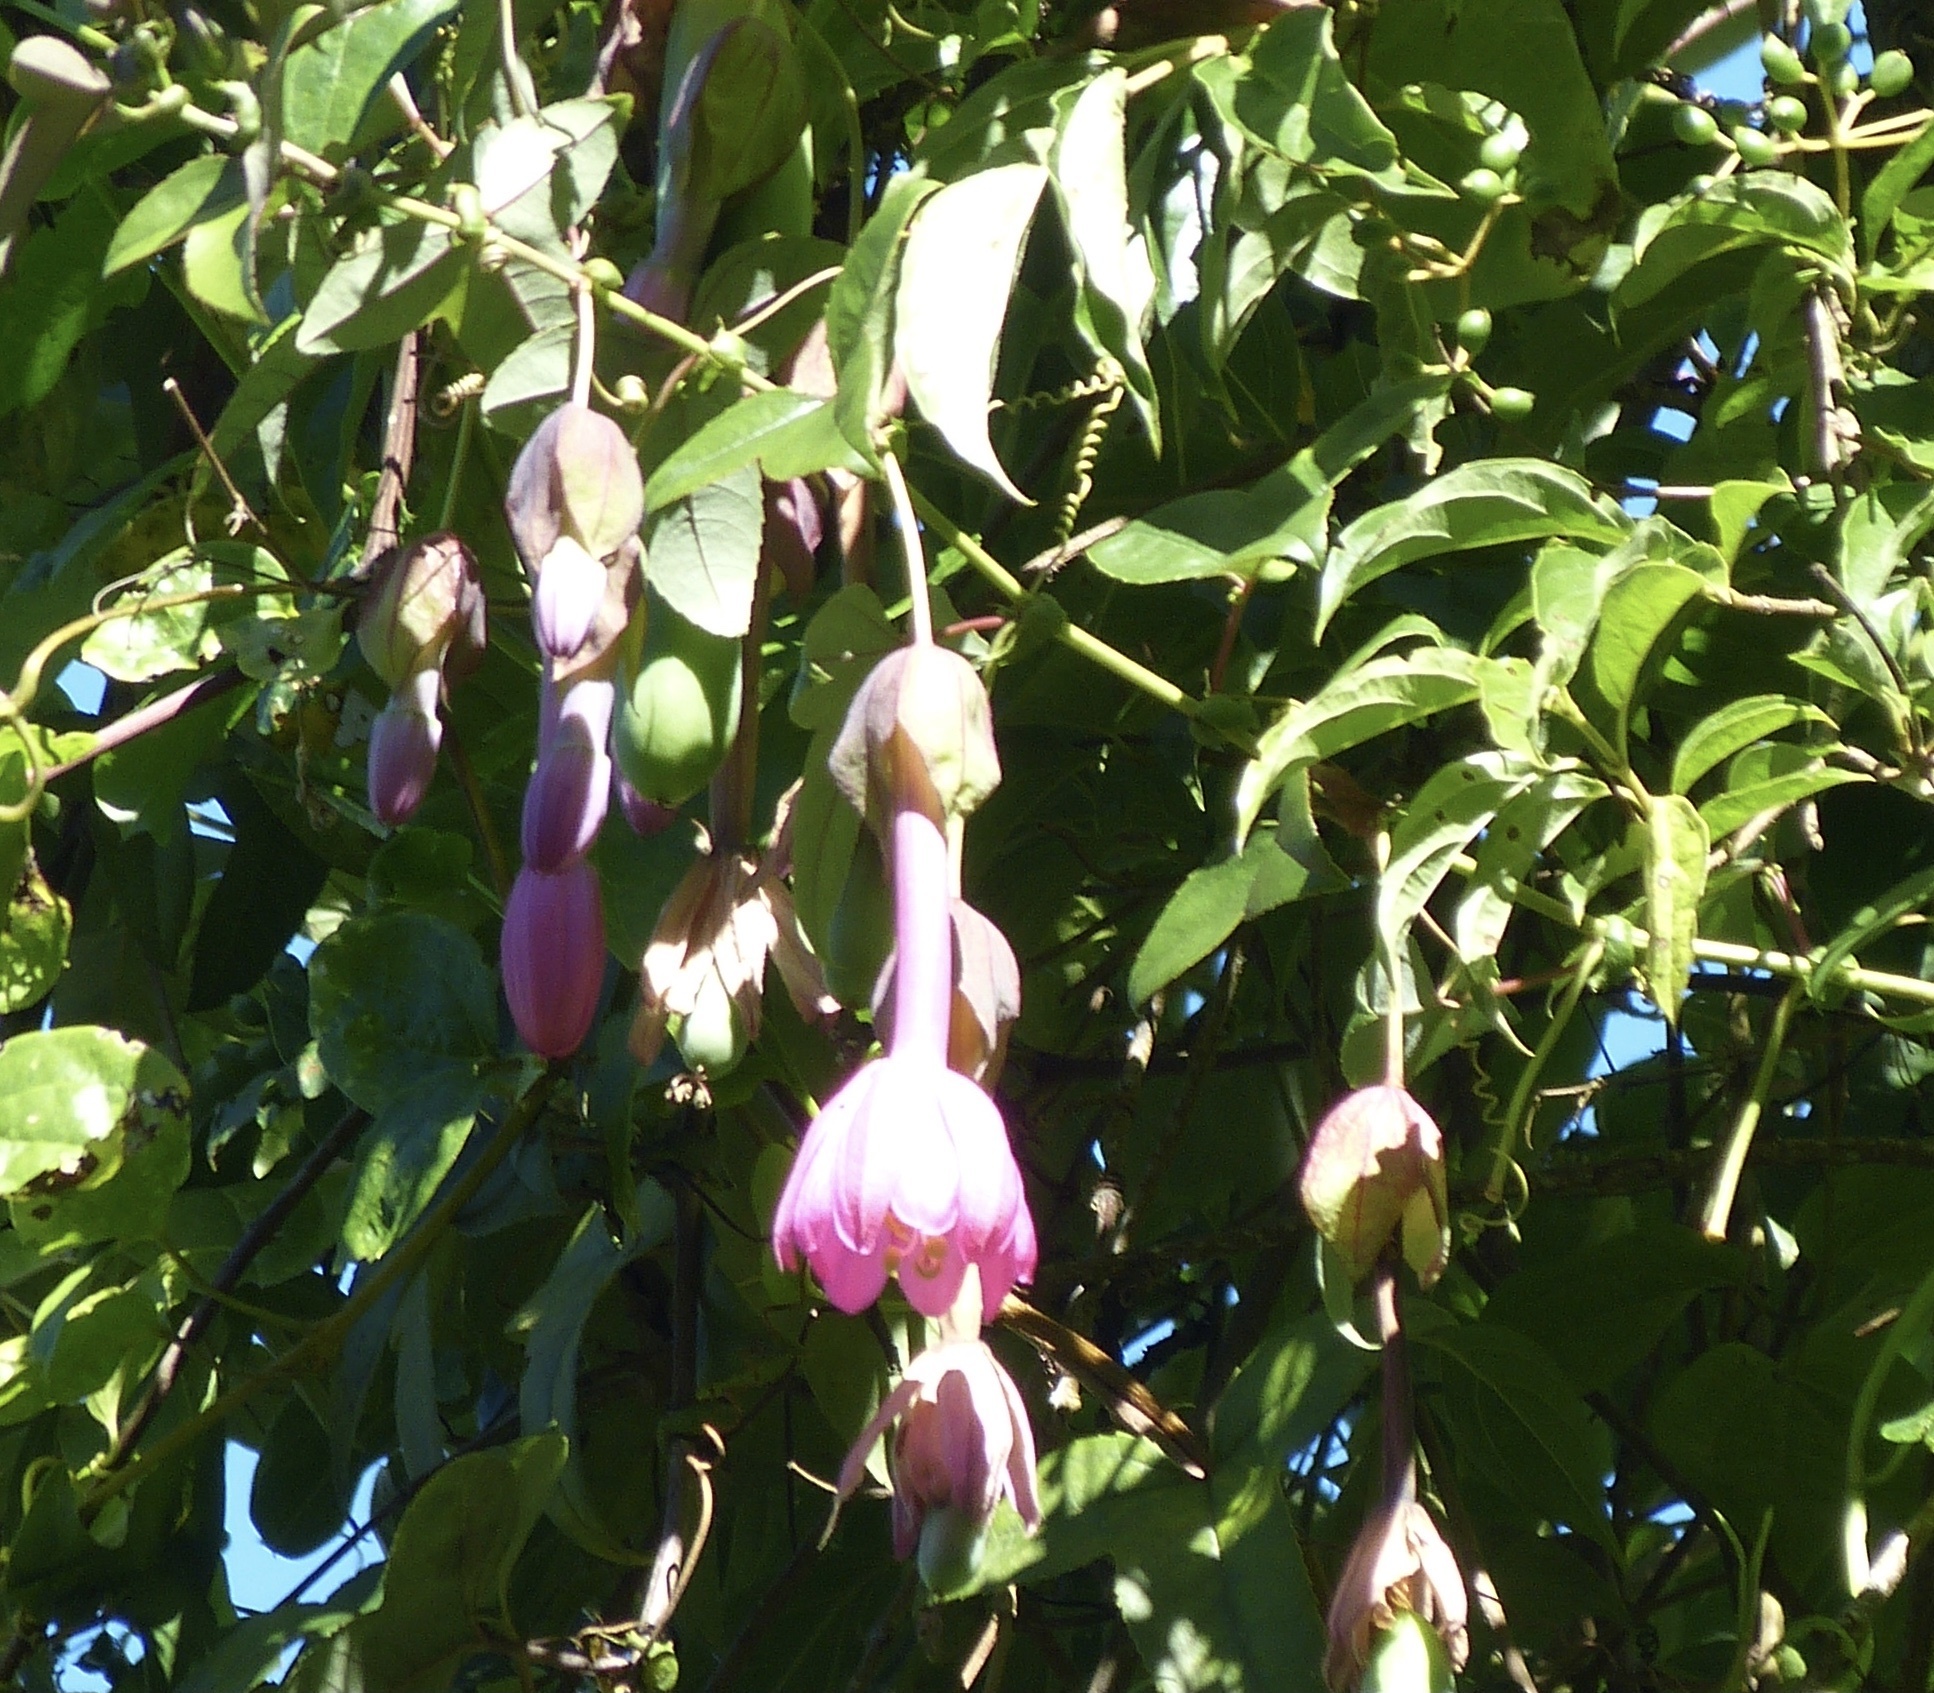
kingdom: Plantae
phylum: Tracheophyta
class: Magnoliopsida
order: Malpighiales
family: Passifloraceae
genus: Passiflora
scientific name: Passiflora cumbalensis
